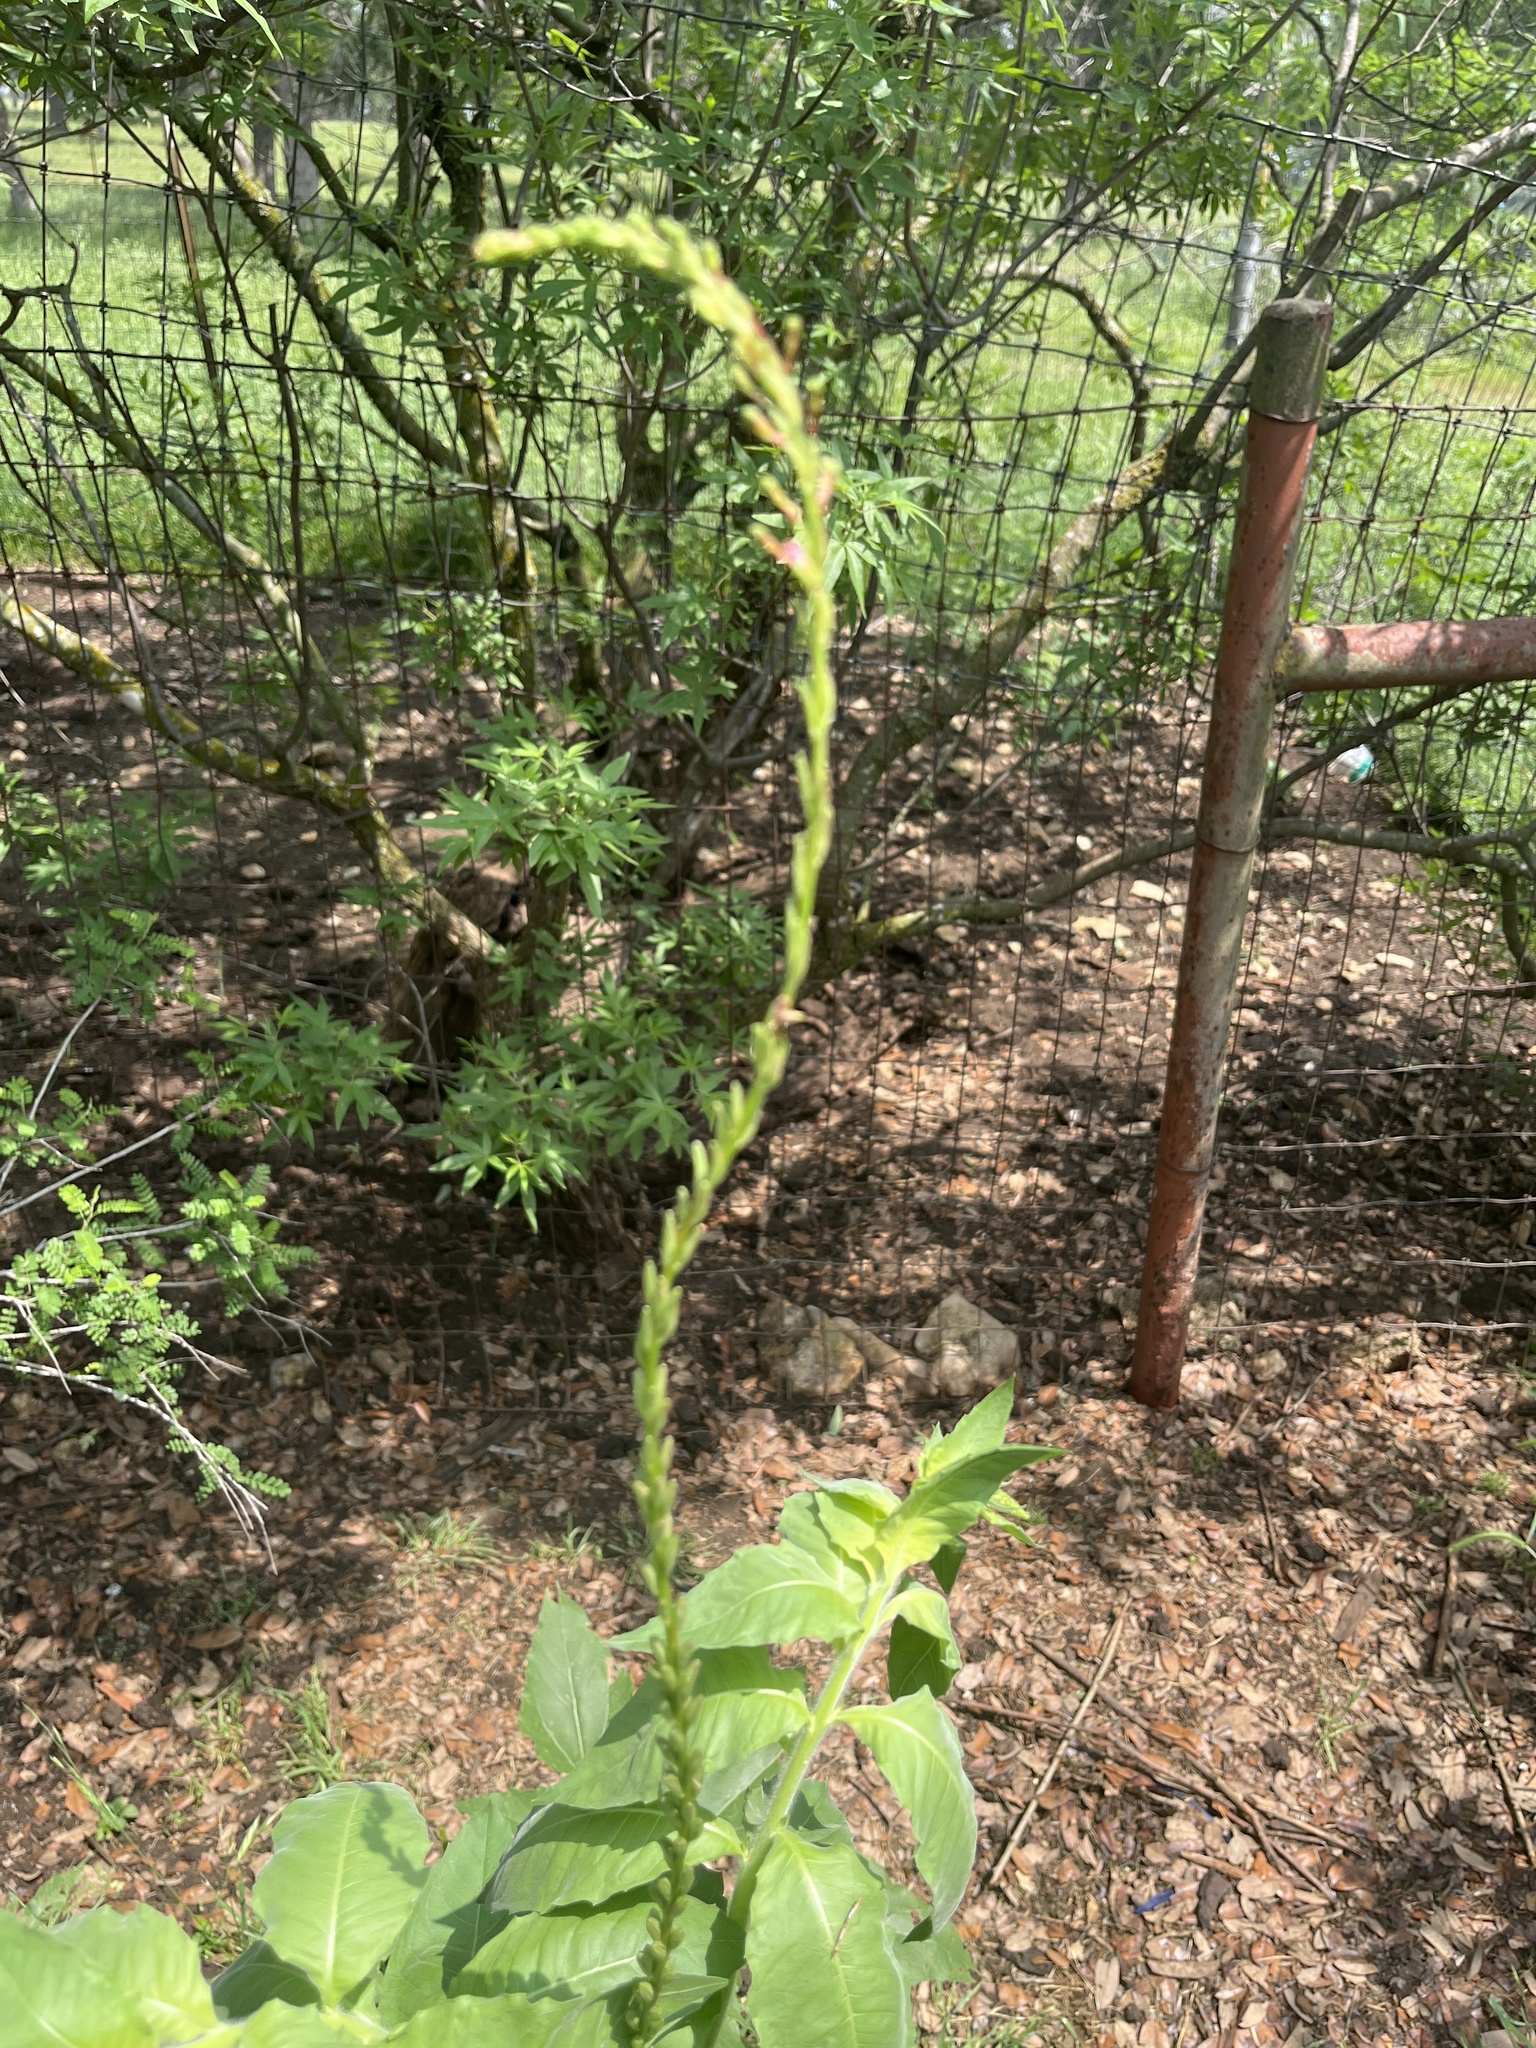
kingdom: Plantae
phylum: Tracheophyta
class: Magnoliopsida
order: Myrtales
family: Onagraceae
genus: Oenothera
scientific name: Oenothera curtiflora
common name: Velvetweed
